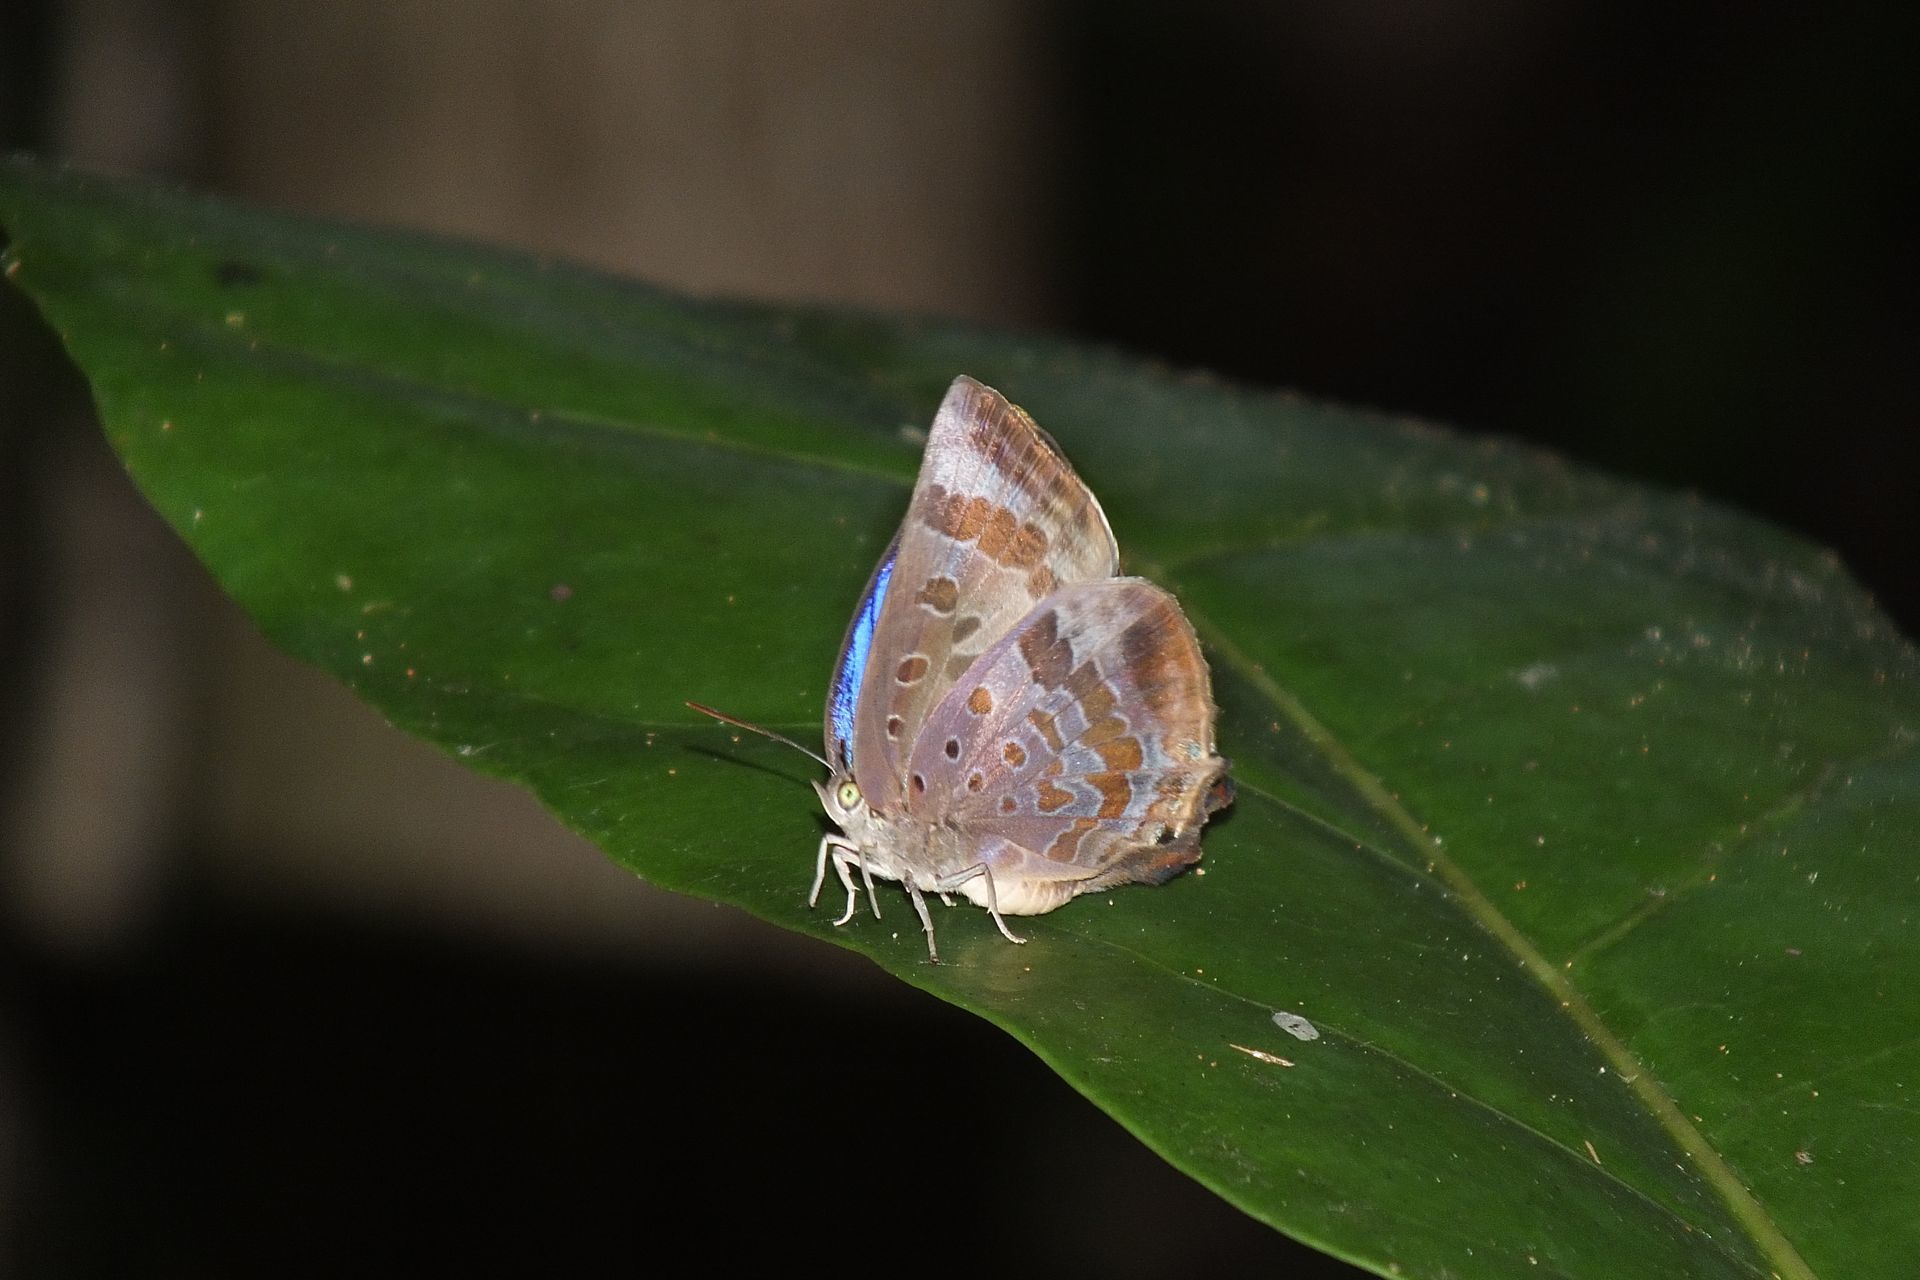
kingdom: Animalia
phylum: Arthropoda
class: Insecta
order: Lepidoptera
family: Lycaenidae
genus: Arhopala
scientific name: Arhopala madytus
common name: Bright oak-blue
